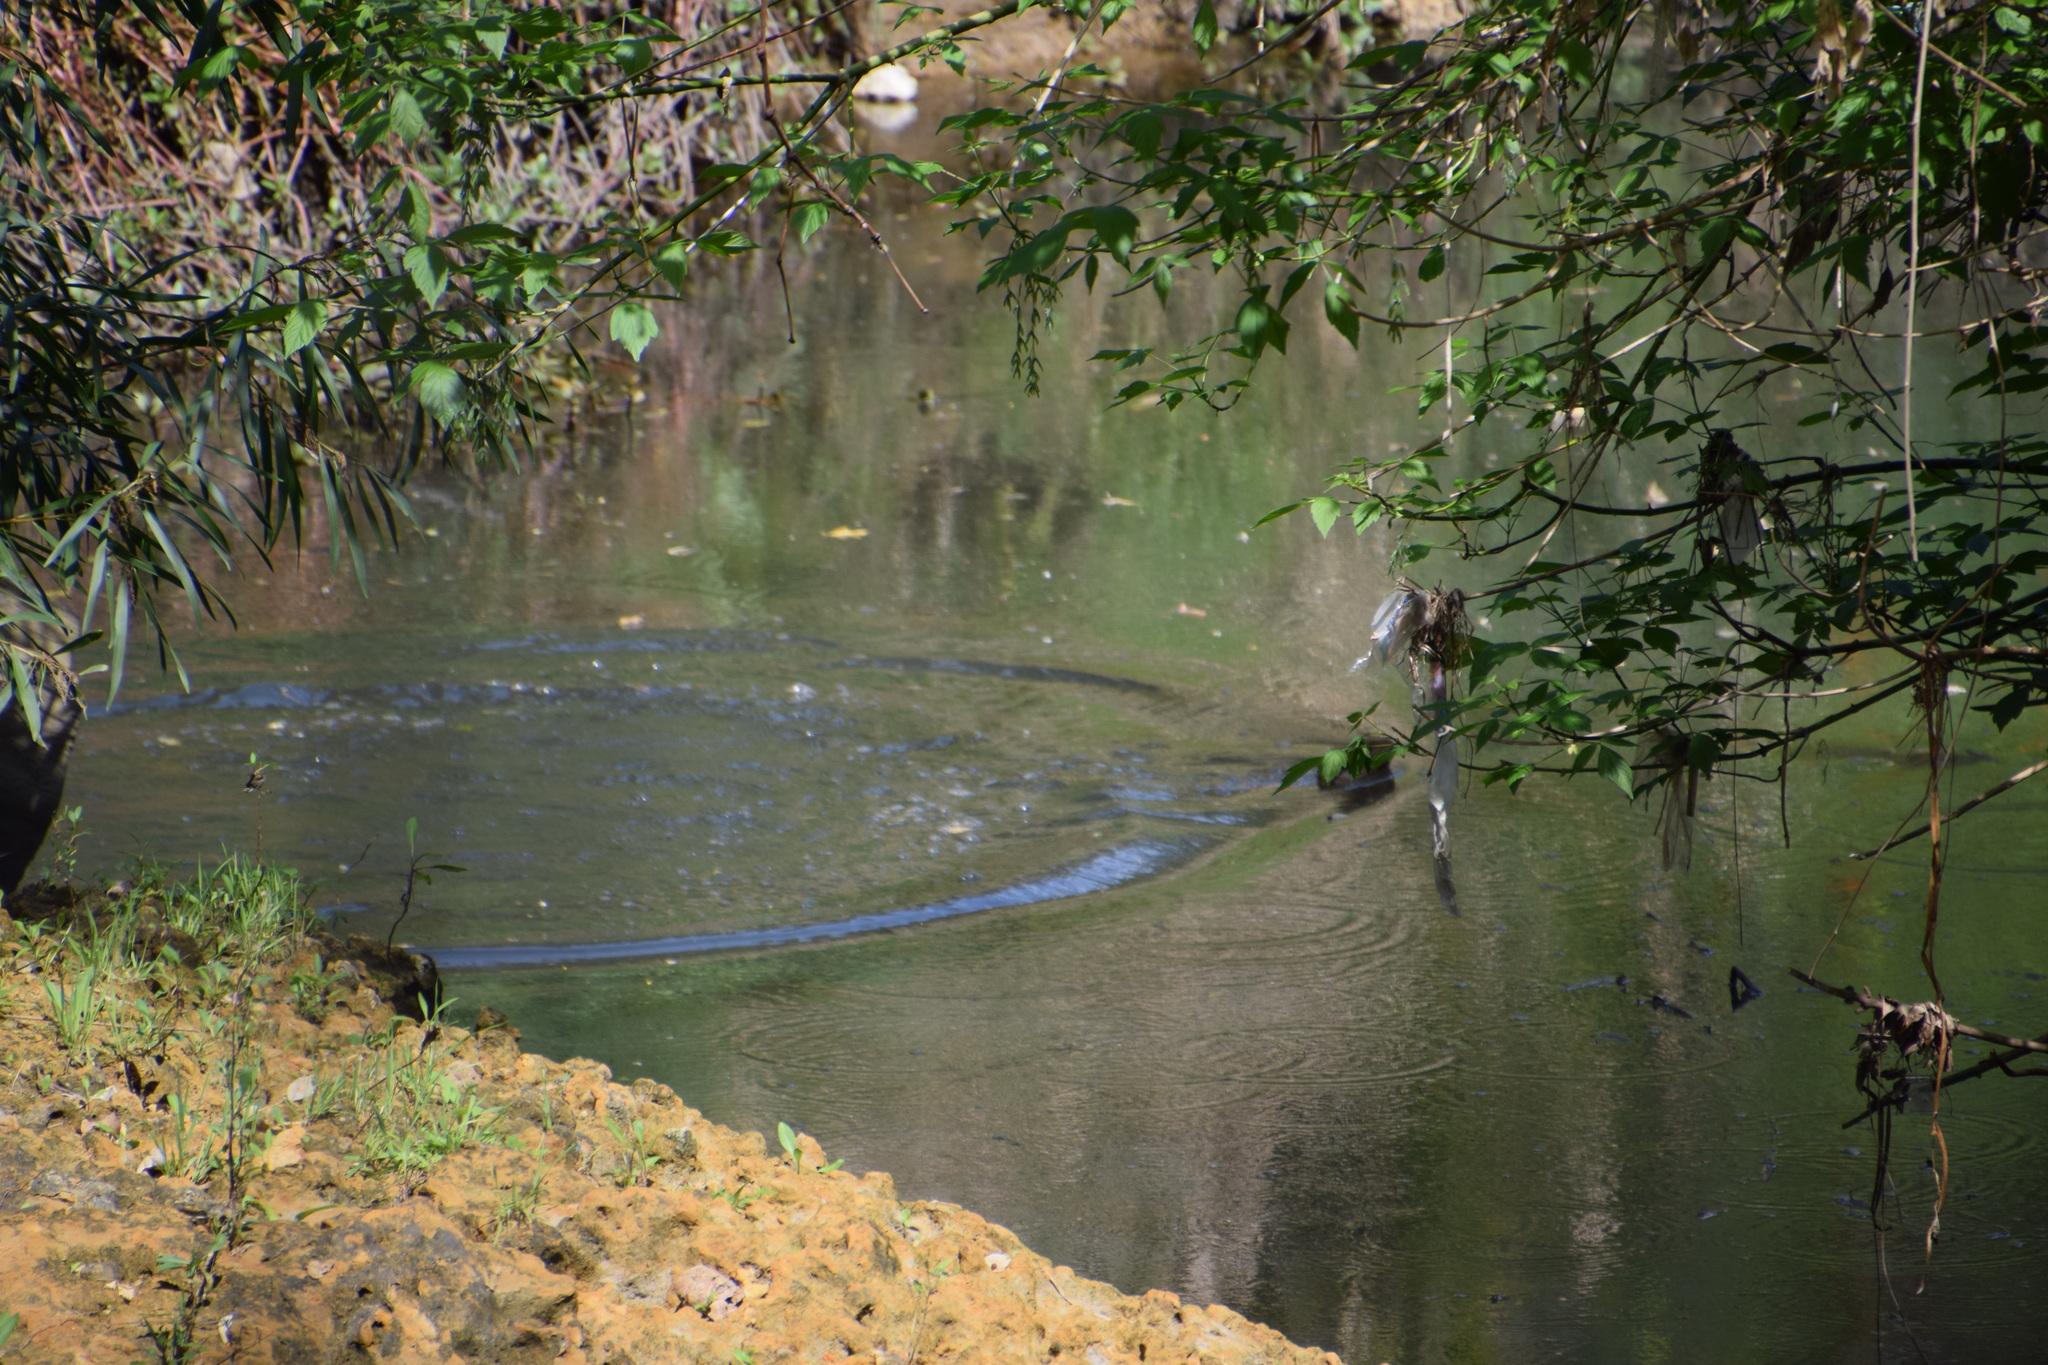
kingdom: Animalia
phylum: Chordata
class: Squamata
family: Agamidae
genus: Intellagama
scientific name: Intellagama lesueurii
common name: Eastern water dragon
